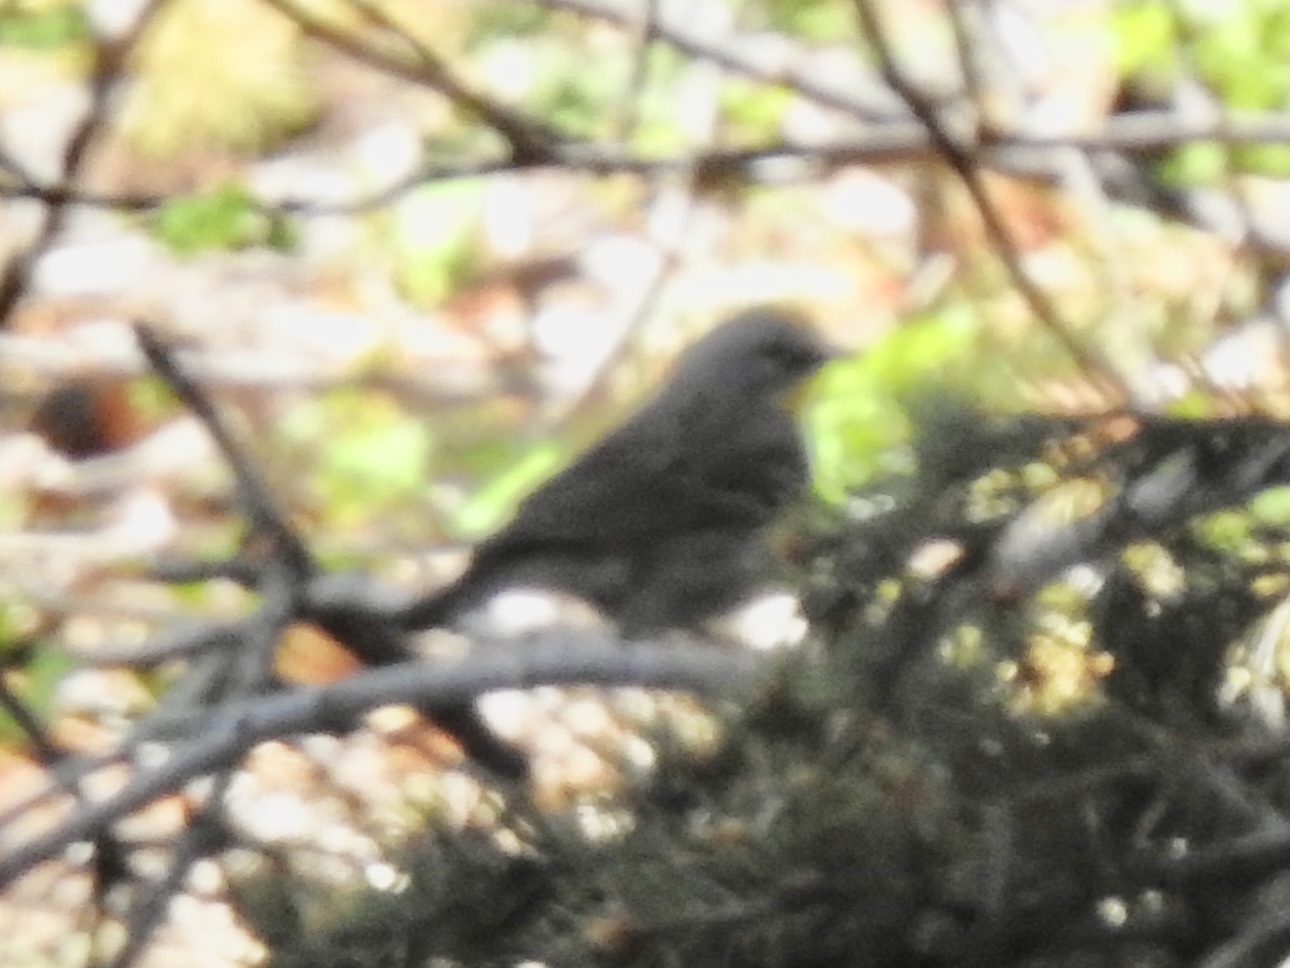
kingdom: Animalia
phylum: Chordata
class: Aves
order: Passeriformes
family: Parulidae
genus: Setophaga
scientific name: Setophaga coronata
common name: Myrtle warbler
